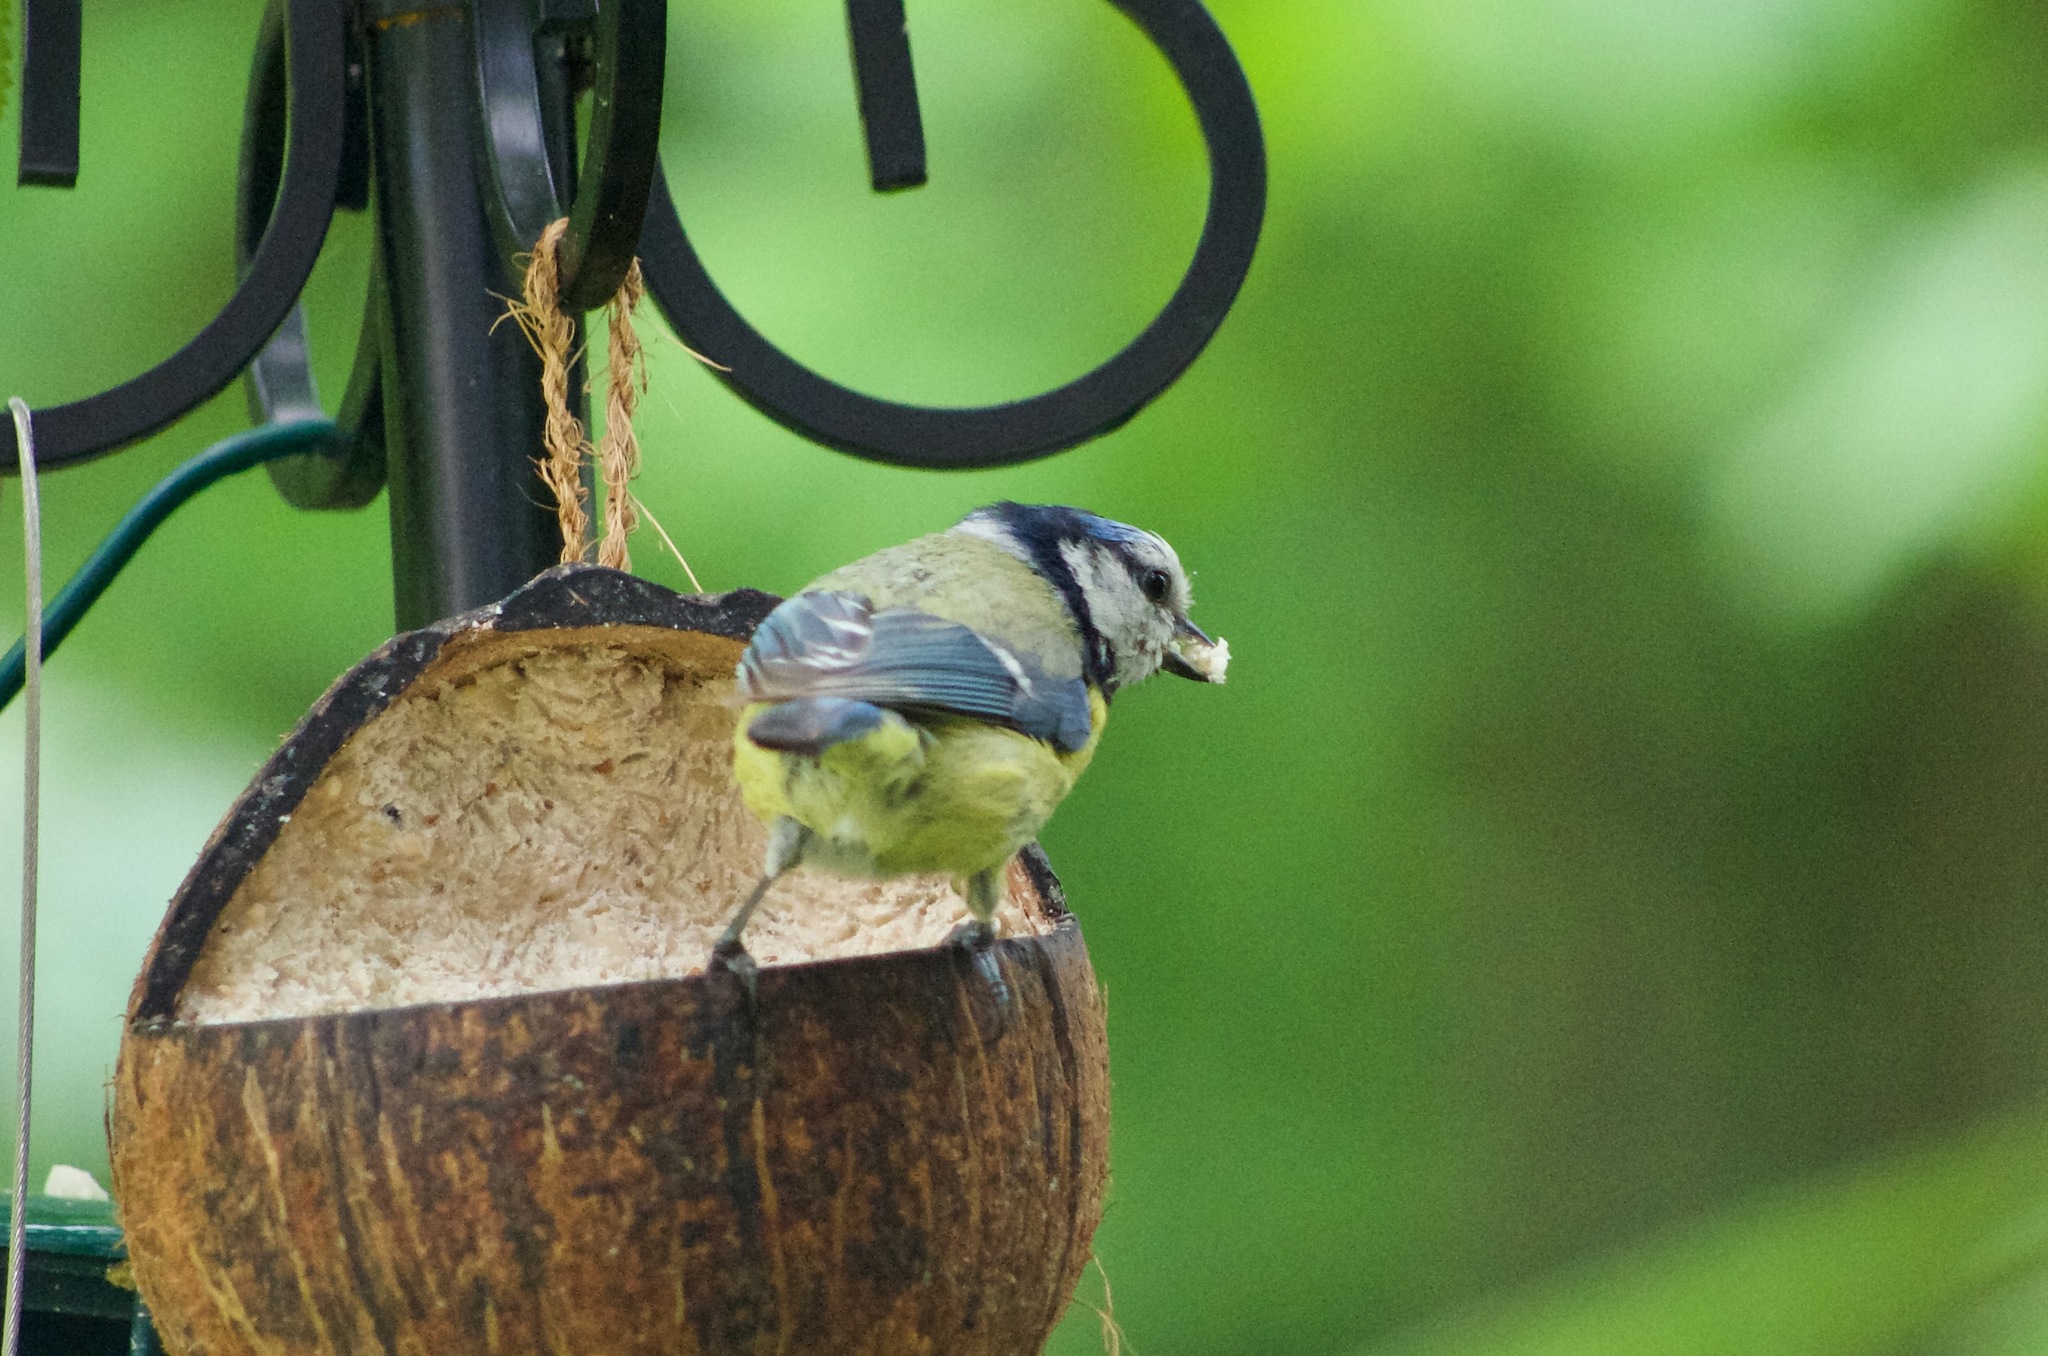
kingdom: Animalia
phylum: Chordata
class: Aves
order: Passeriformes
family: Paridae
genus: Cyanistes
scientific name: Cyanistes caeruleus
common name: Eurasian blue tit
